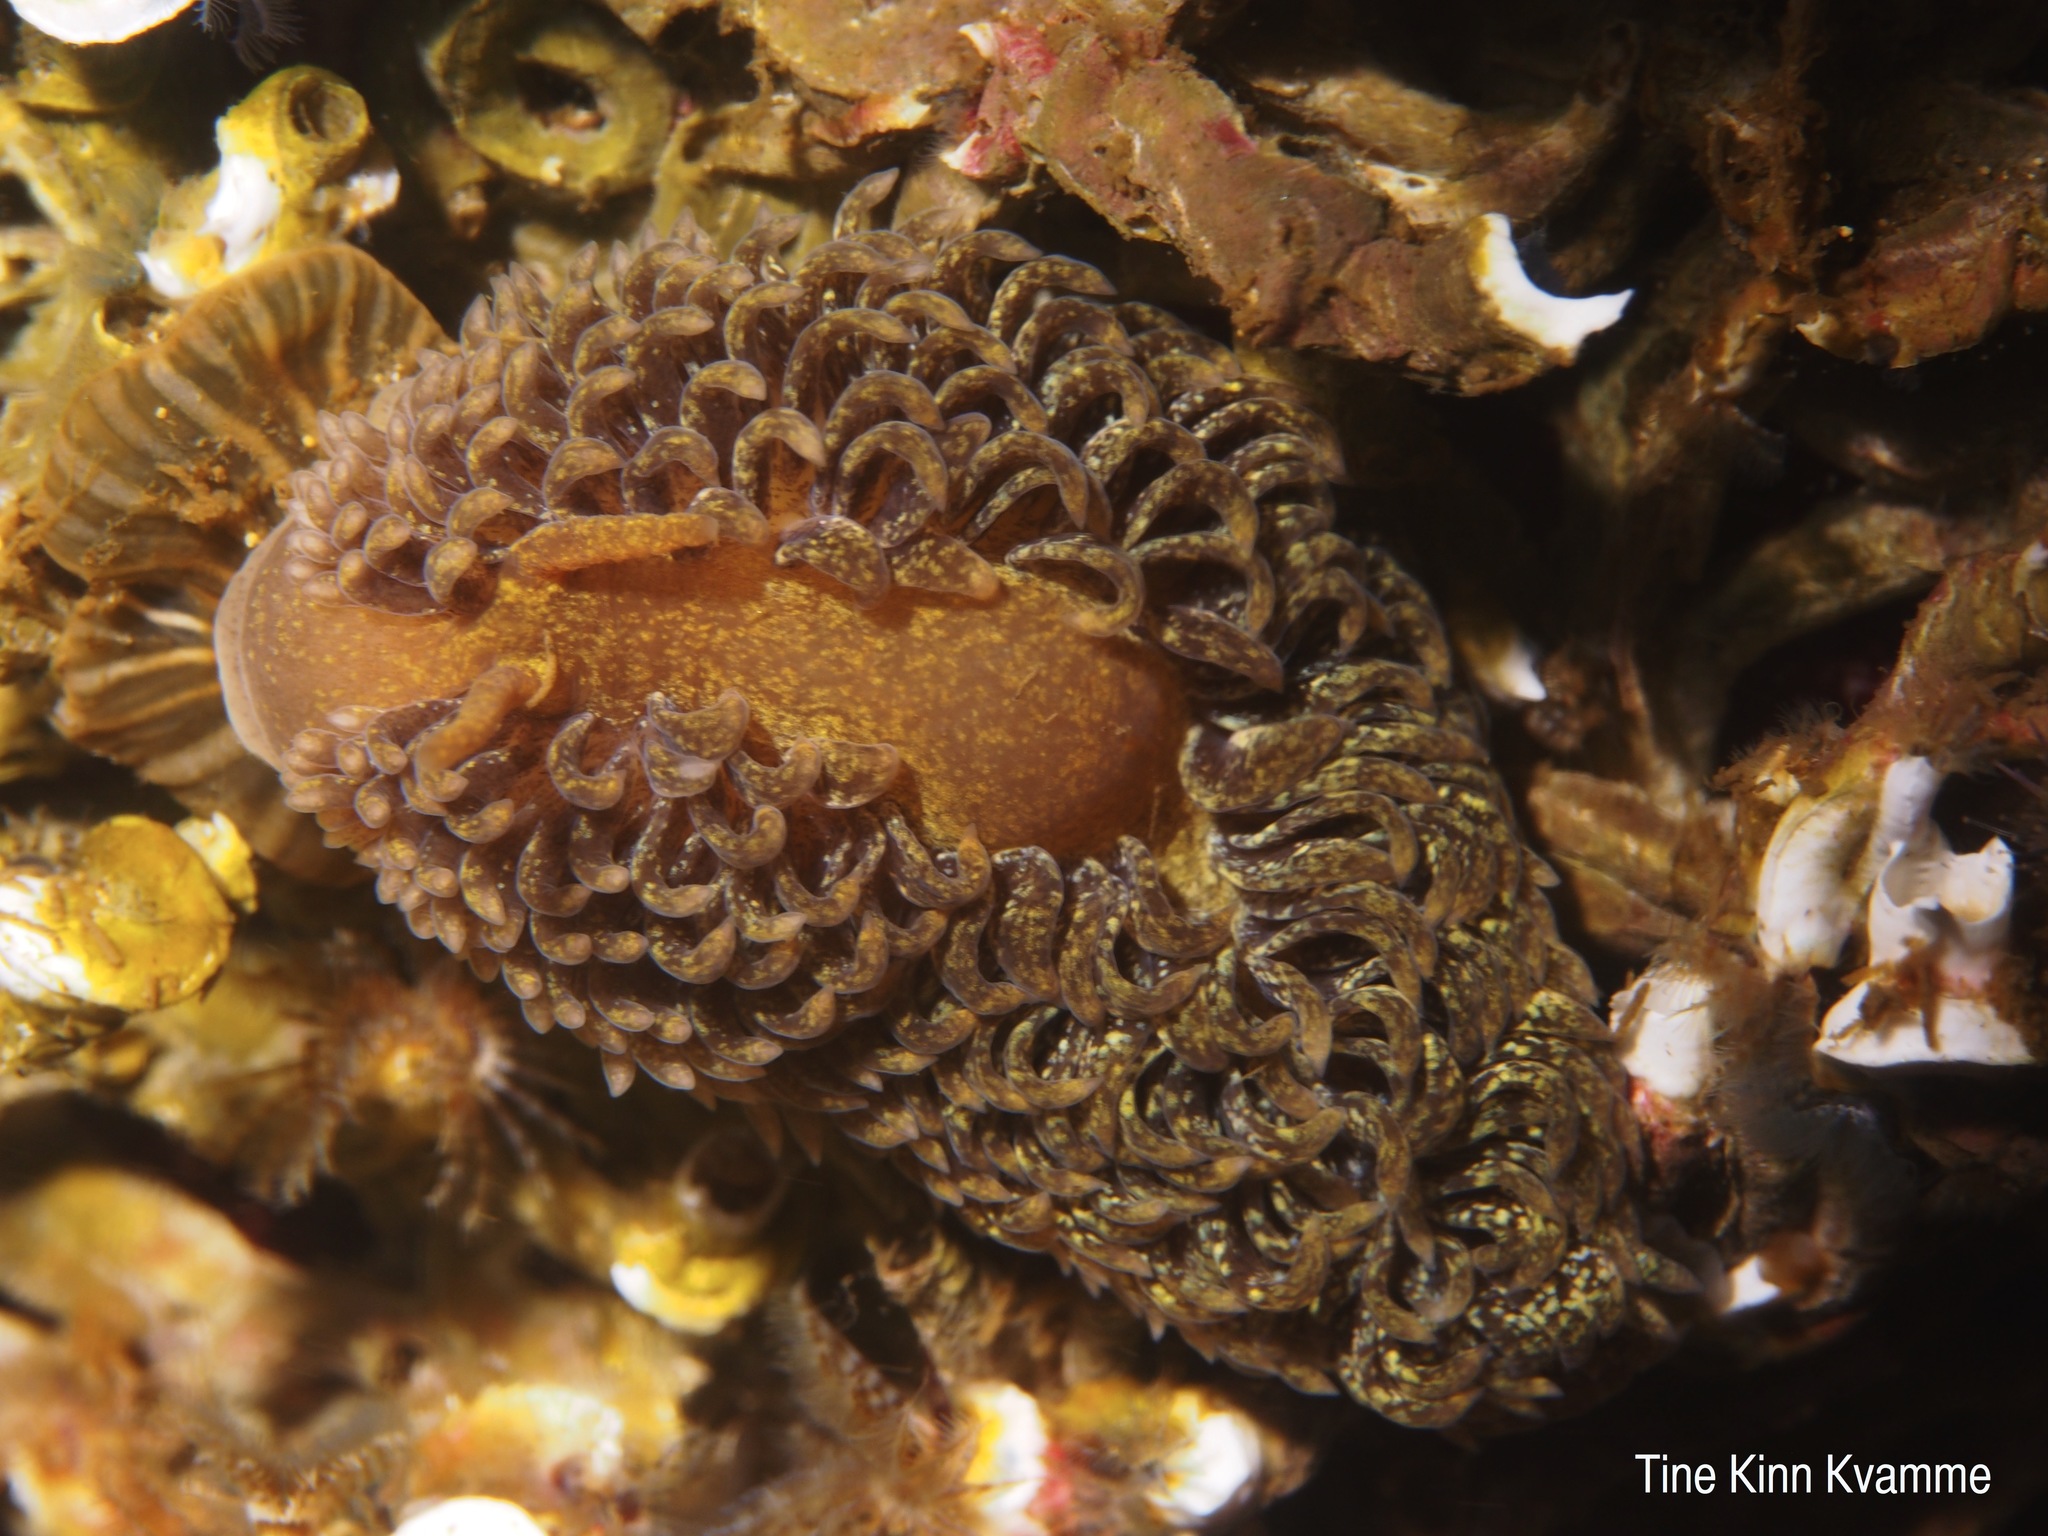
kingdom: Animalia
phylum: Mollusca
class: Gastropoda
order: Nudibranchia
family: Aeolidiidae
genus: Aeolidia
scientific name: Aeolidia papillosa
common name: Common grey sea slug
